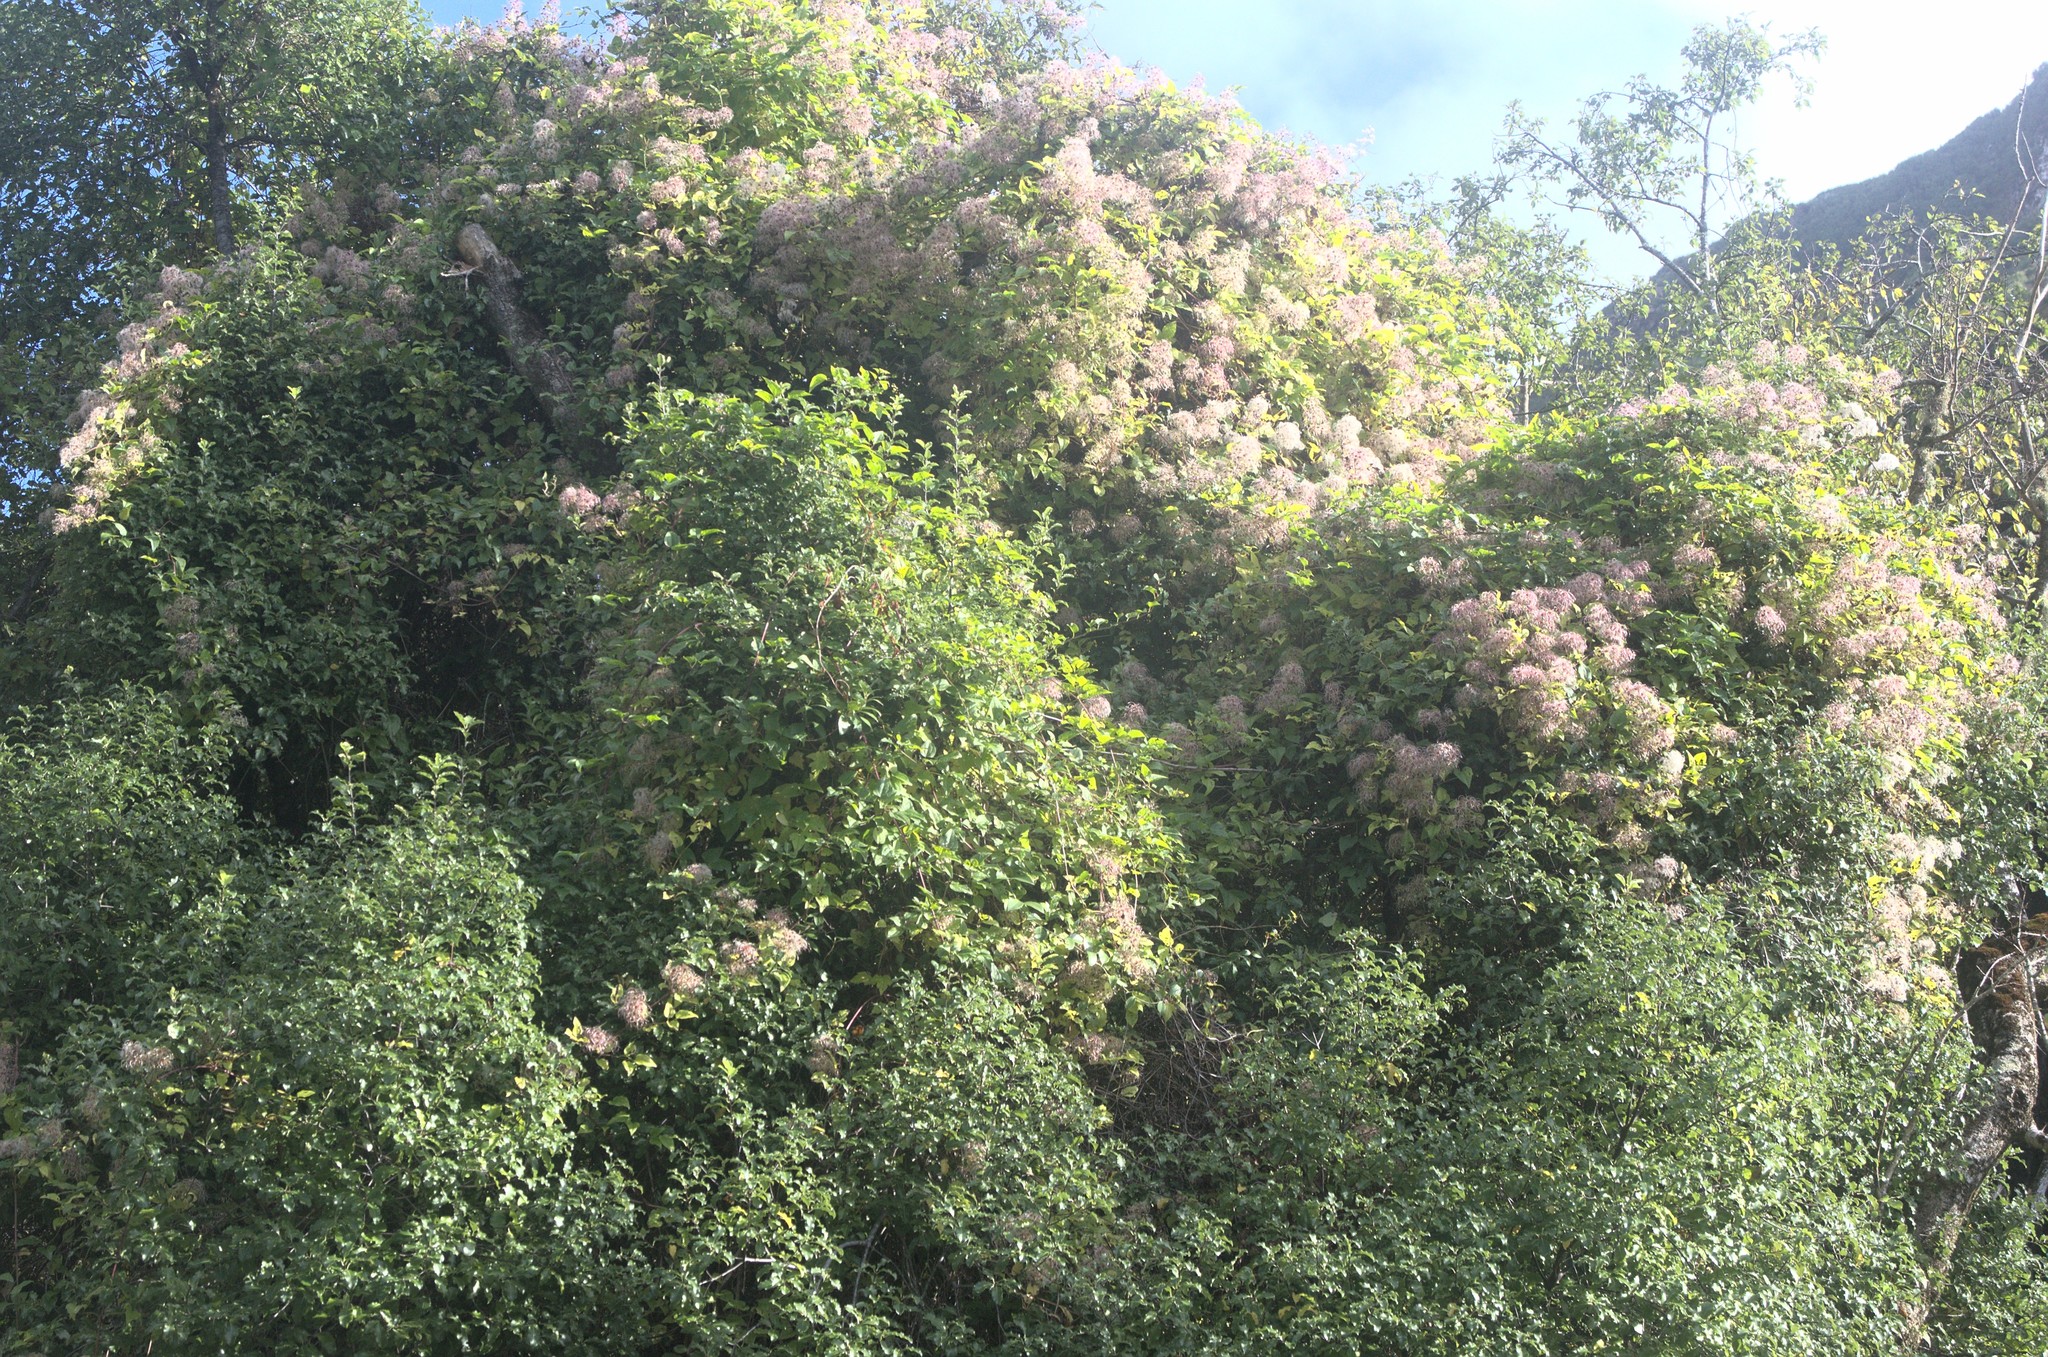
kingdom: Plantae
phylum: Tracheophyta
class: Magnoliopsida
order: Ranunculales
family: Ranunculaceae
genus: Clematis
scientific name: Clematis vitalba
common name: Evergreen clematis
